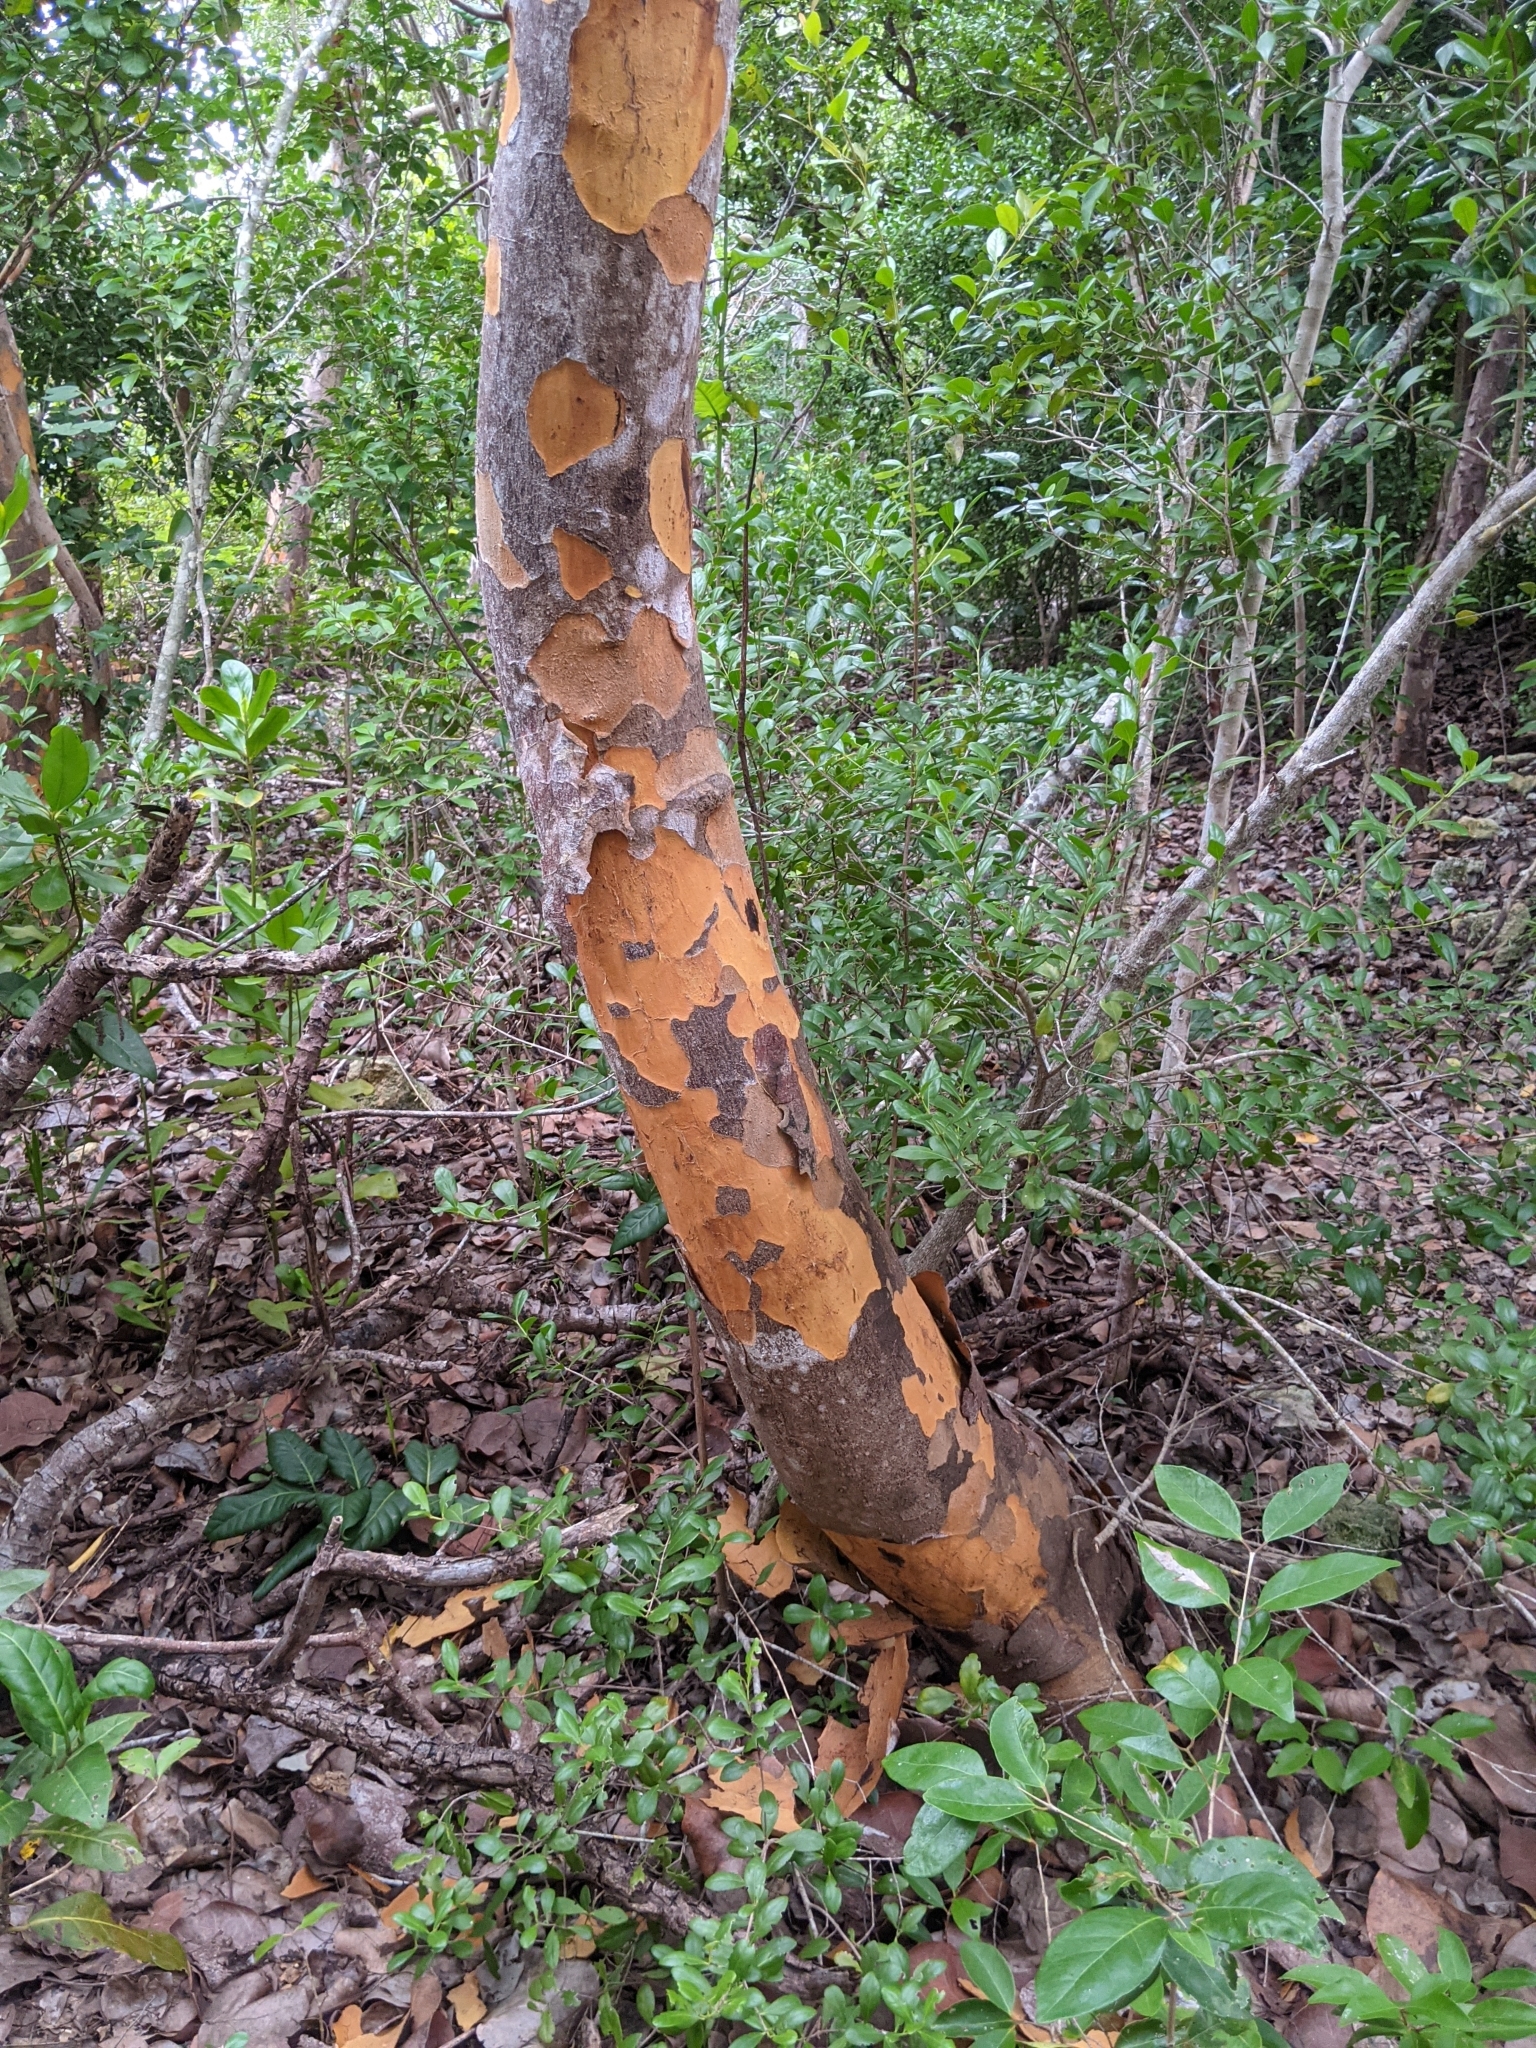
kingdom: Plantae
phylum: Tracheophyta
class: Magnoliopsida
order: Sapindales
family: Anacardiaceae
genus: Metopium
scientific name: Metopium toxiferum
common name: Florida poisontree
